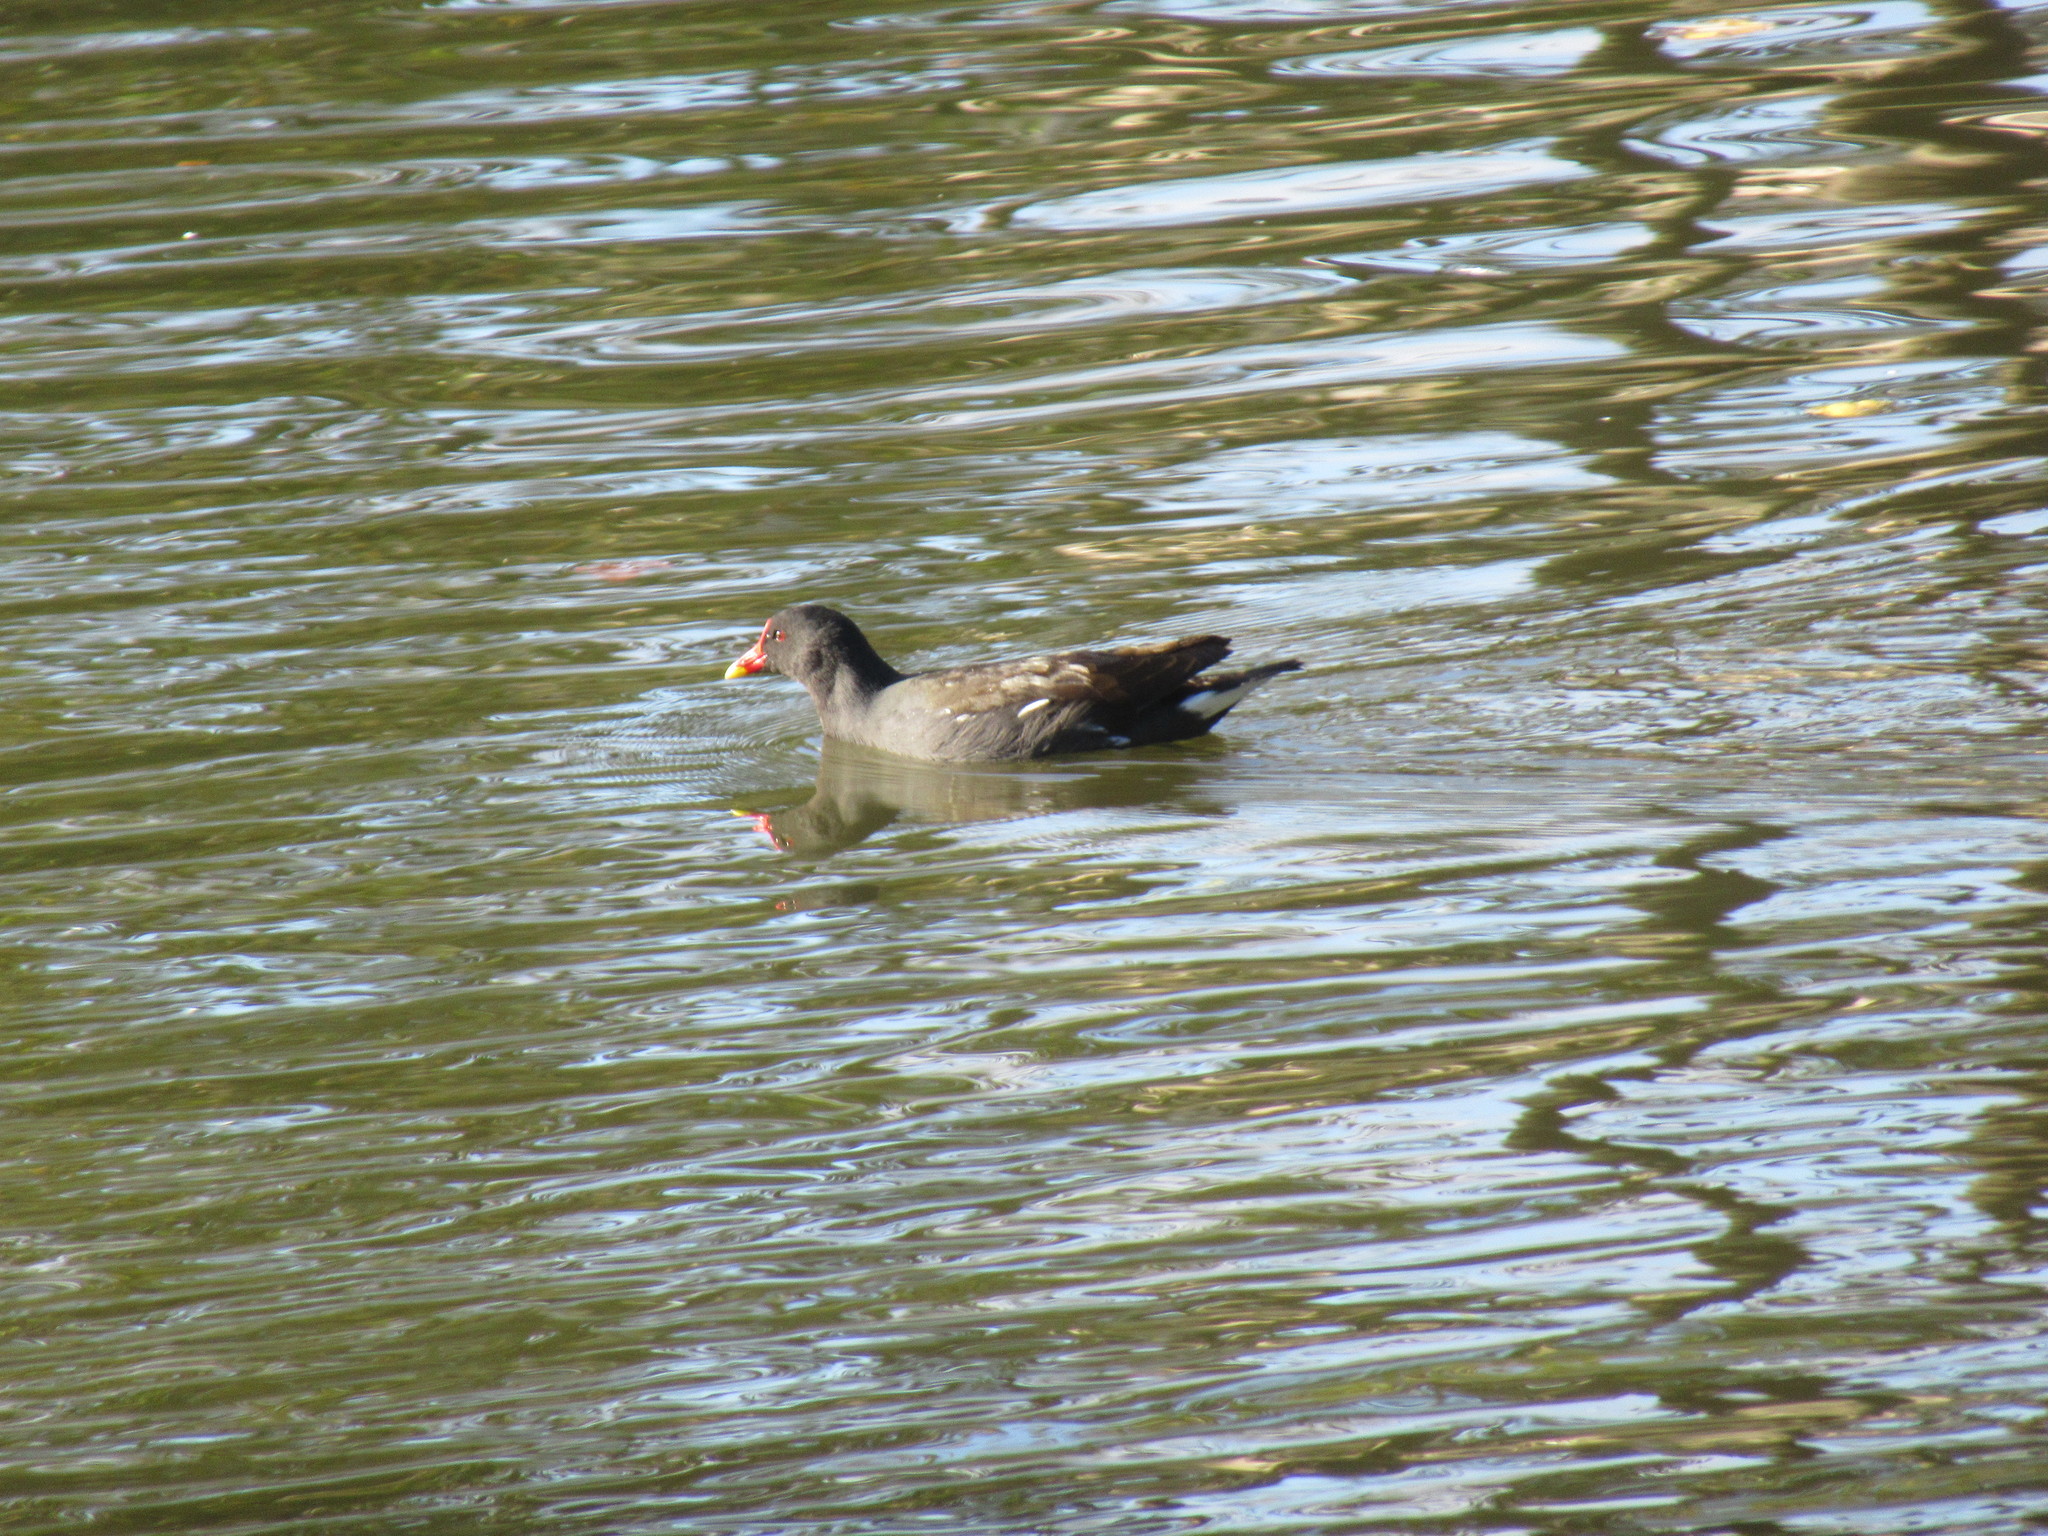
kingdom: Animalia
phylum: Chordata
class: Aves
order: Gruiformes
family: Rallidae
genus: Gallinula
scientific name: Gallinula chloropus
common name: Common moorhen
